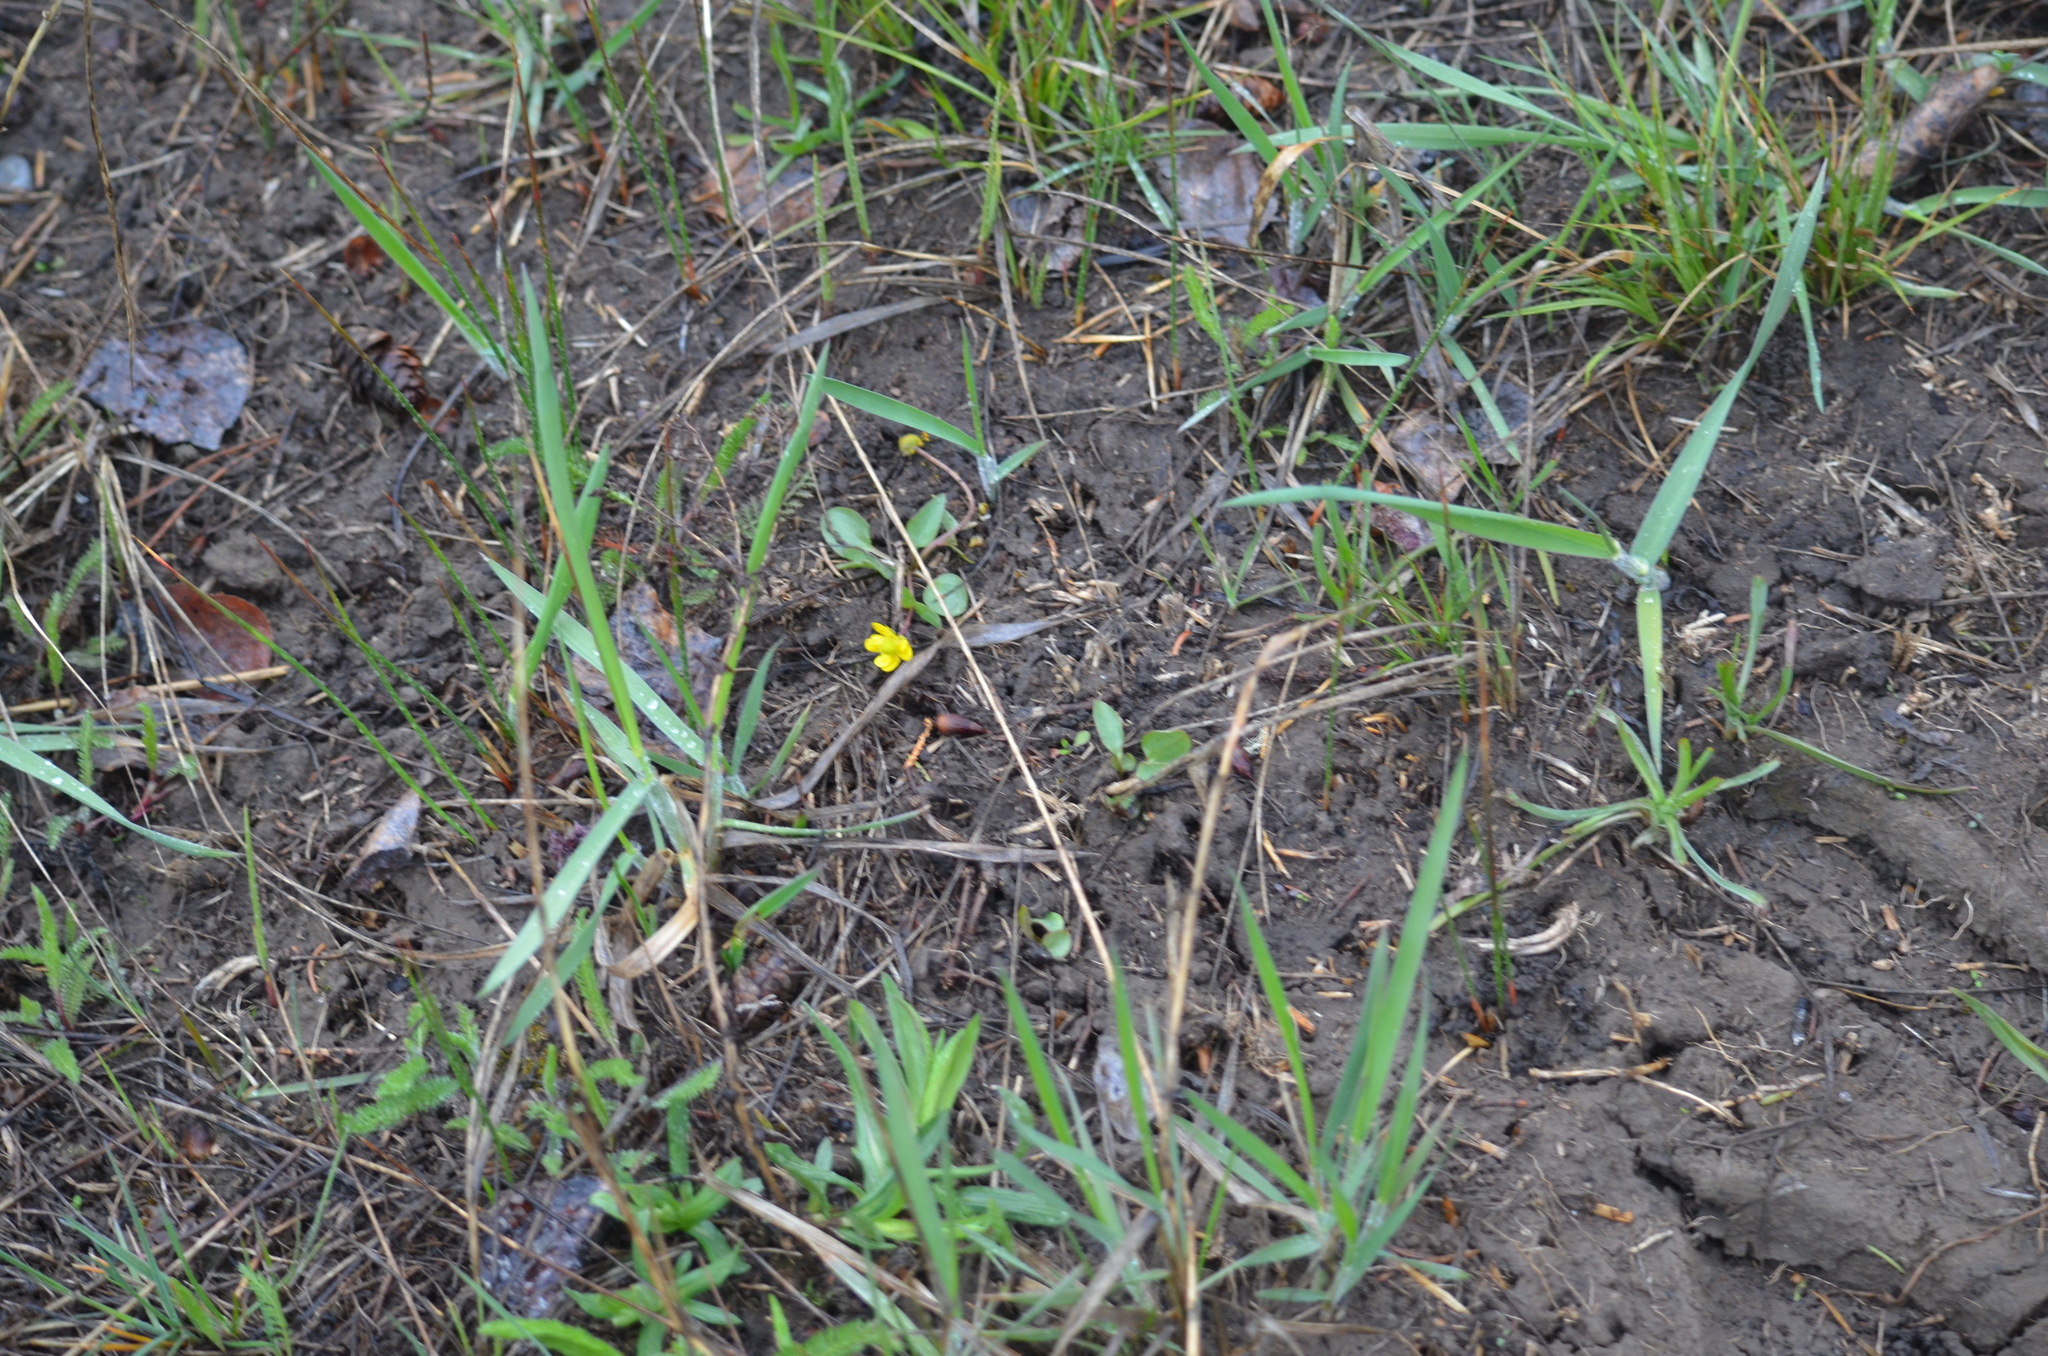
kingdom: Plantae
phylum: Tracheophyta
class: Magnoliopsida
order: Ranunculales
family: Ranunculaceae
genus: Ranunculus
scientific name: Ranunculus glaberrimus
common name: Sagebrush buttercup
